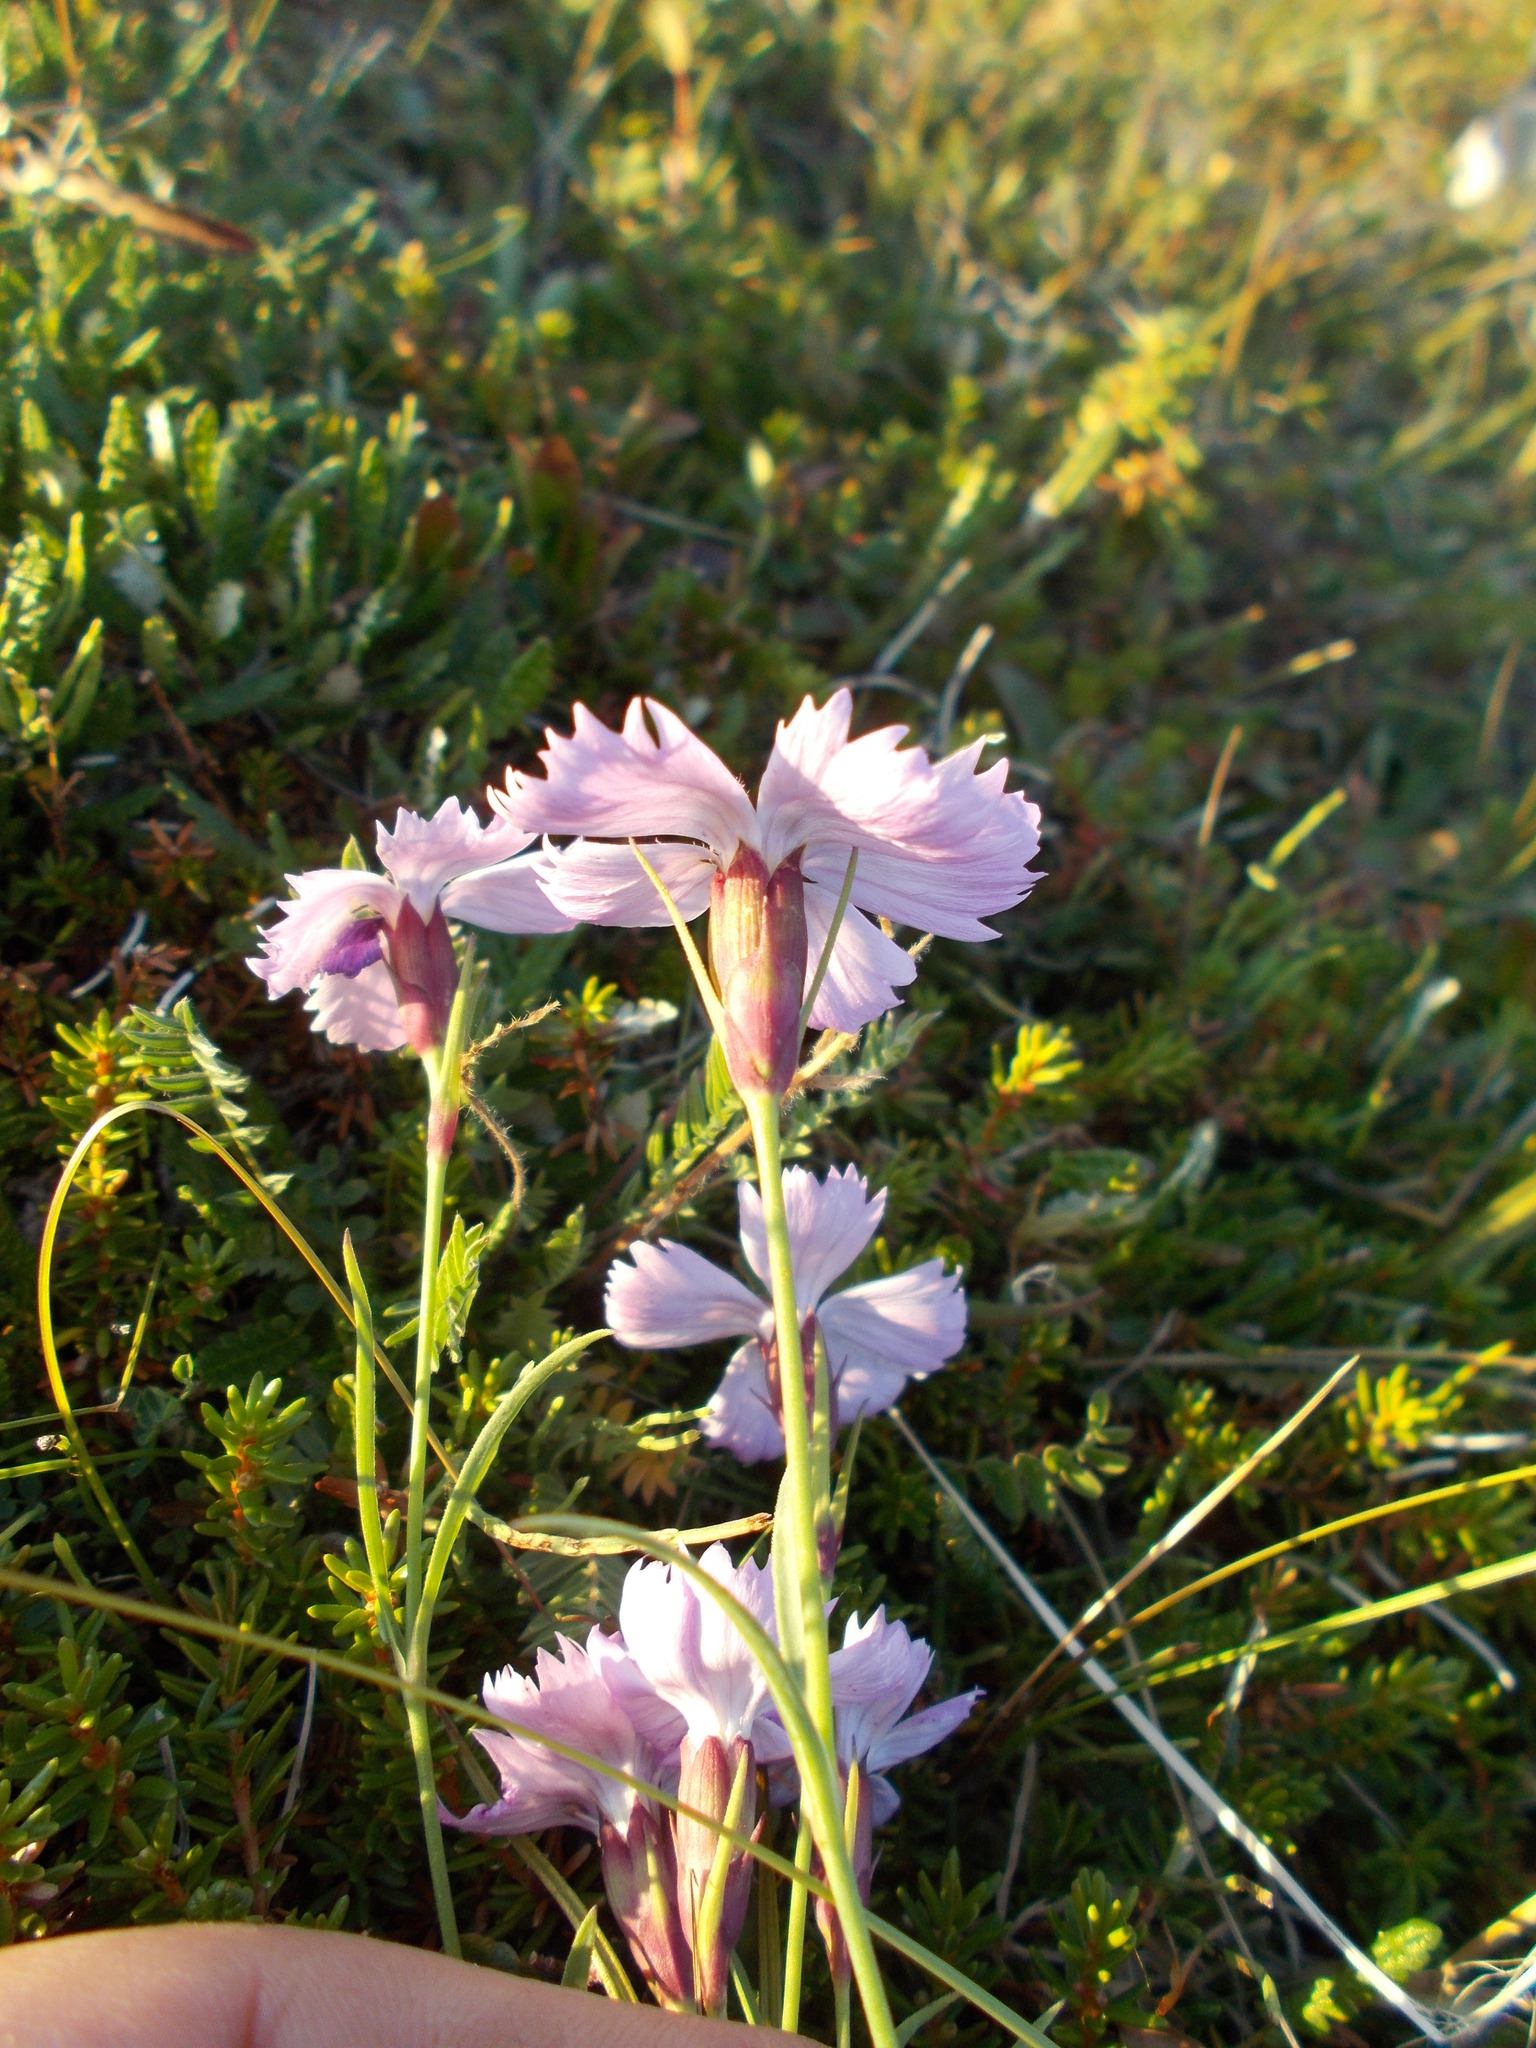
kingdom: Plantae
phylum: Tracheophyta
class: Magnoliopsida
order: Caryophyllales
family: Caryophyllaceae
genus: Dianthus
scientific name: Dianthus repens
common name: Northern pink
